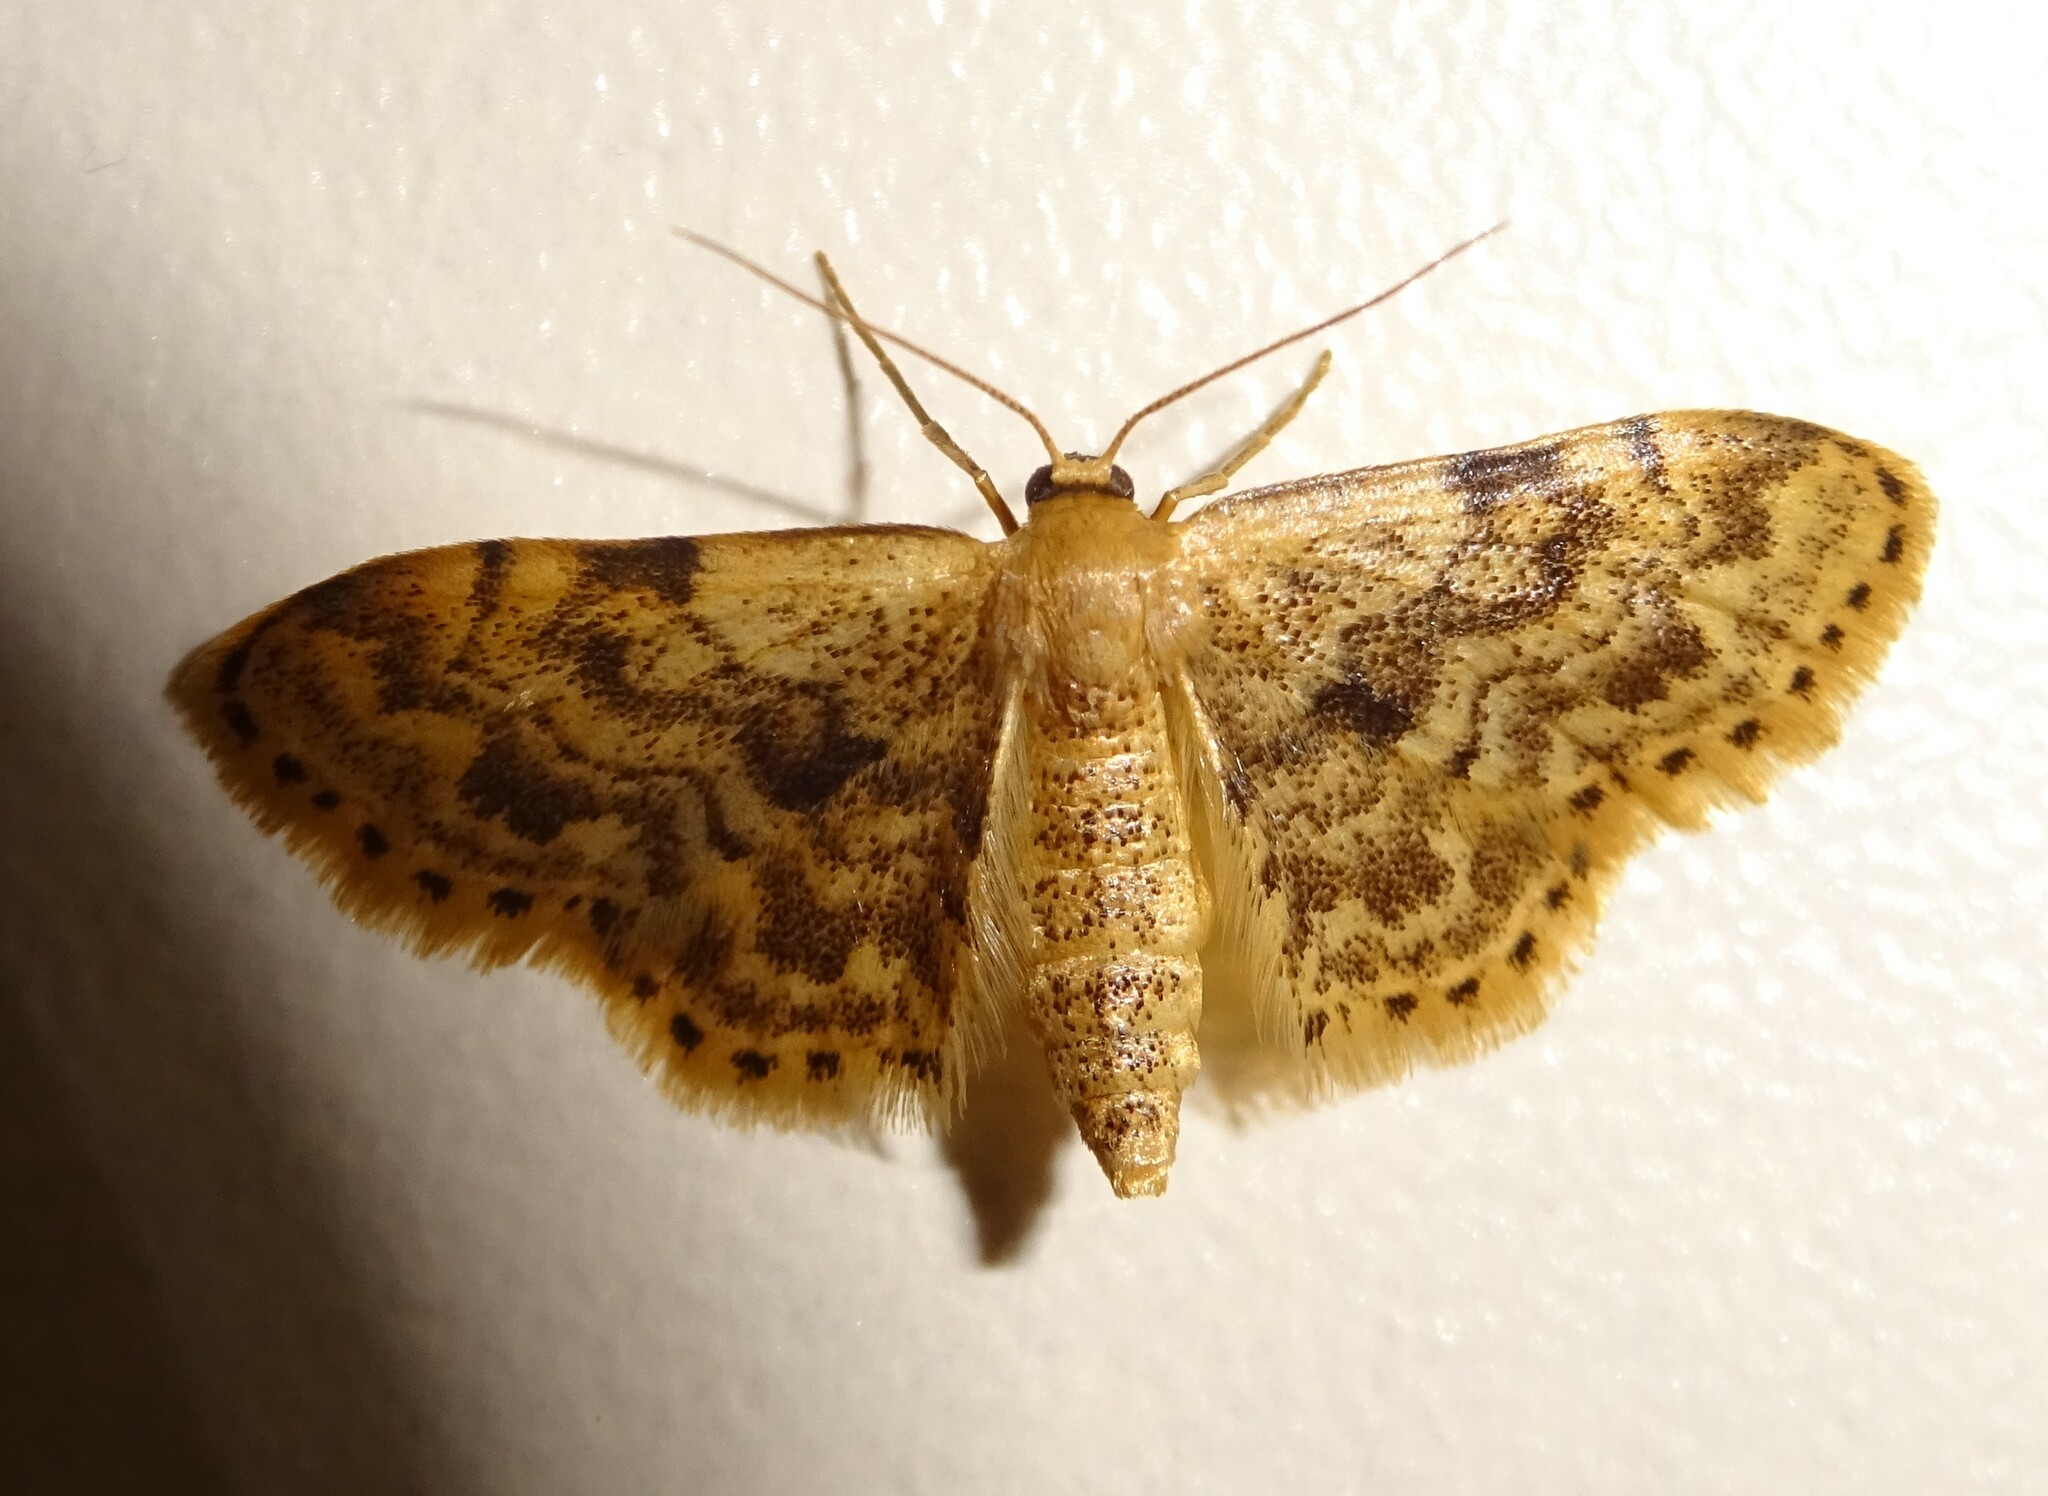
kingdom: Animalia
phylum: Arthropoda
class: Insecta
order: Lepidoptera
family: Geometridae
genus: Idaea
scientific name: Idaea inquinata
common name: Rusty wave
